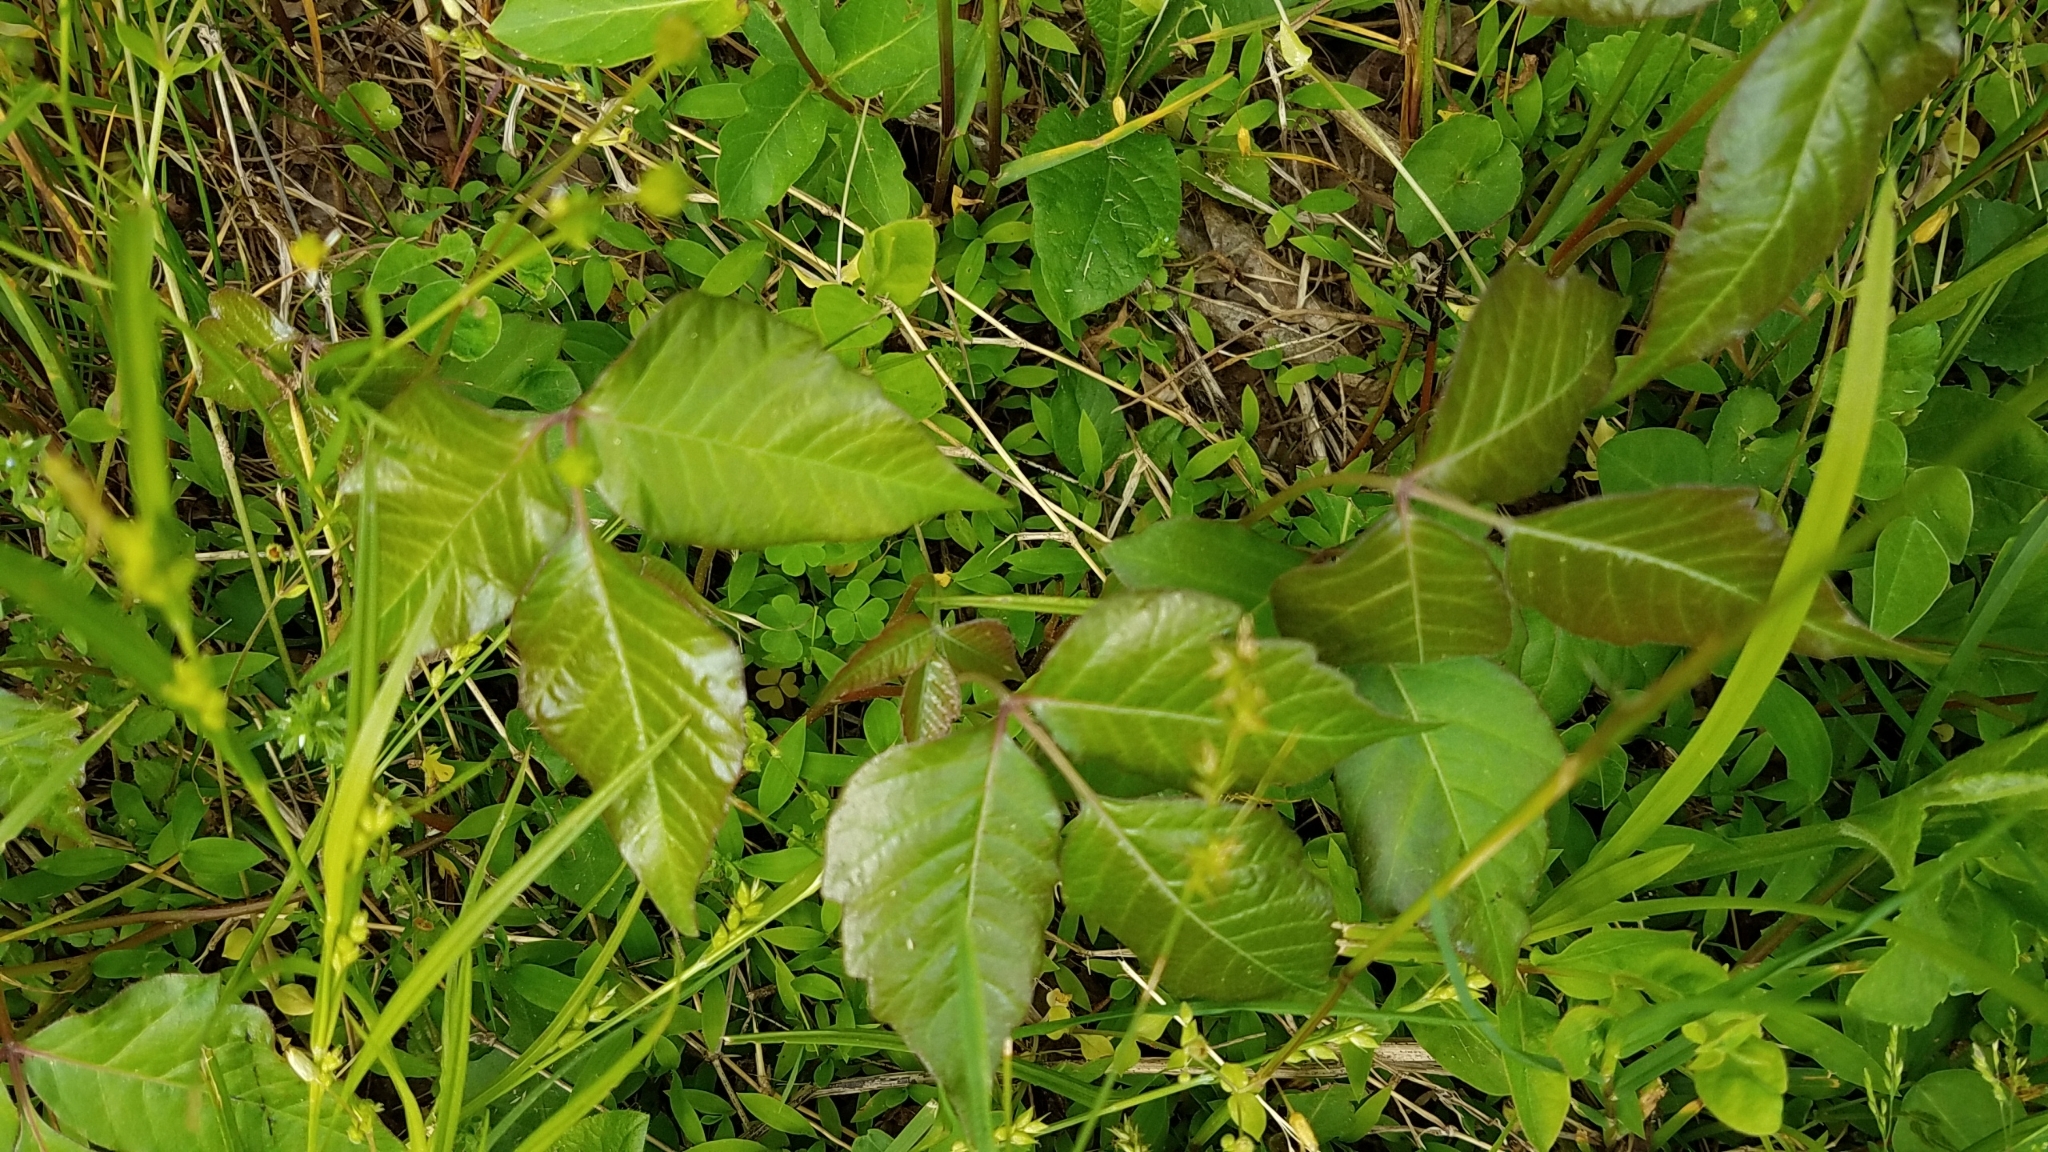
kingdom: Plantae
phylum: Tracheophyta
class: Magnoliopsida
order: Sapindales
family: Anacardiaceae
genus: Toxicodendron
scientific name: Toxicodendron radicans
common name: Poison ivy
